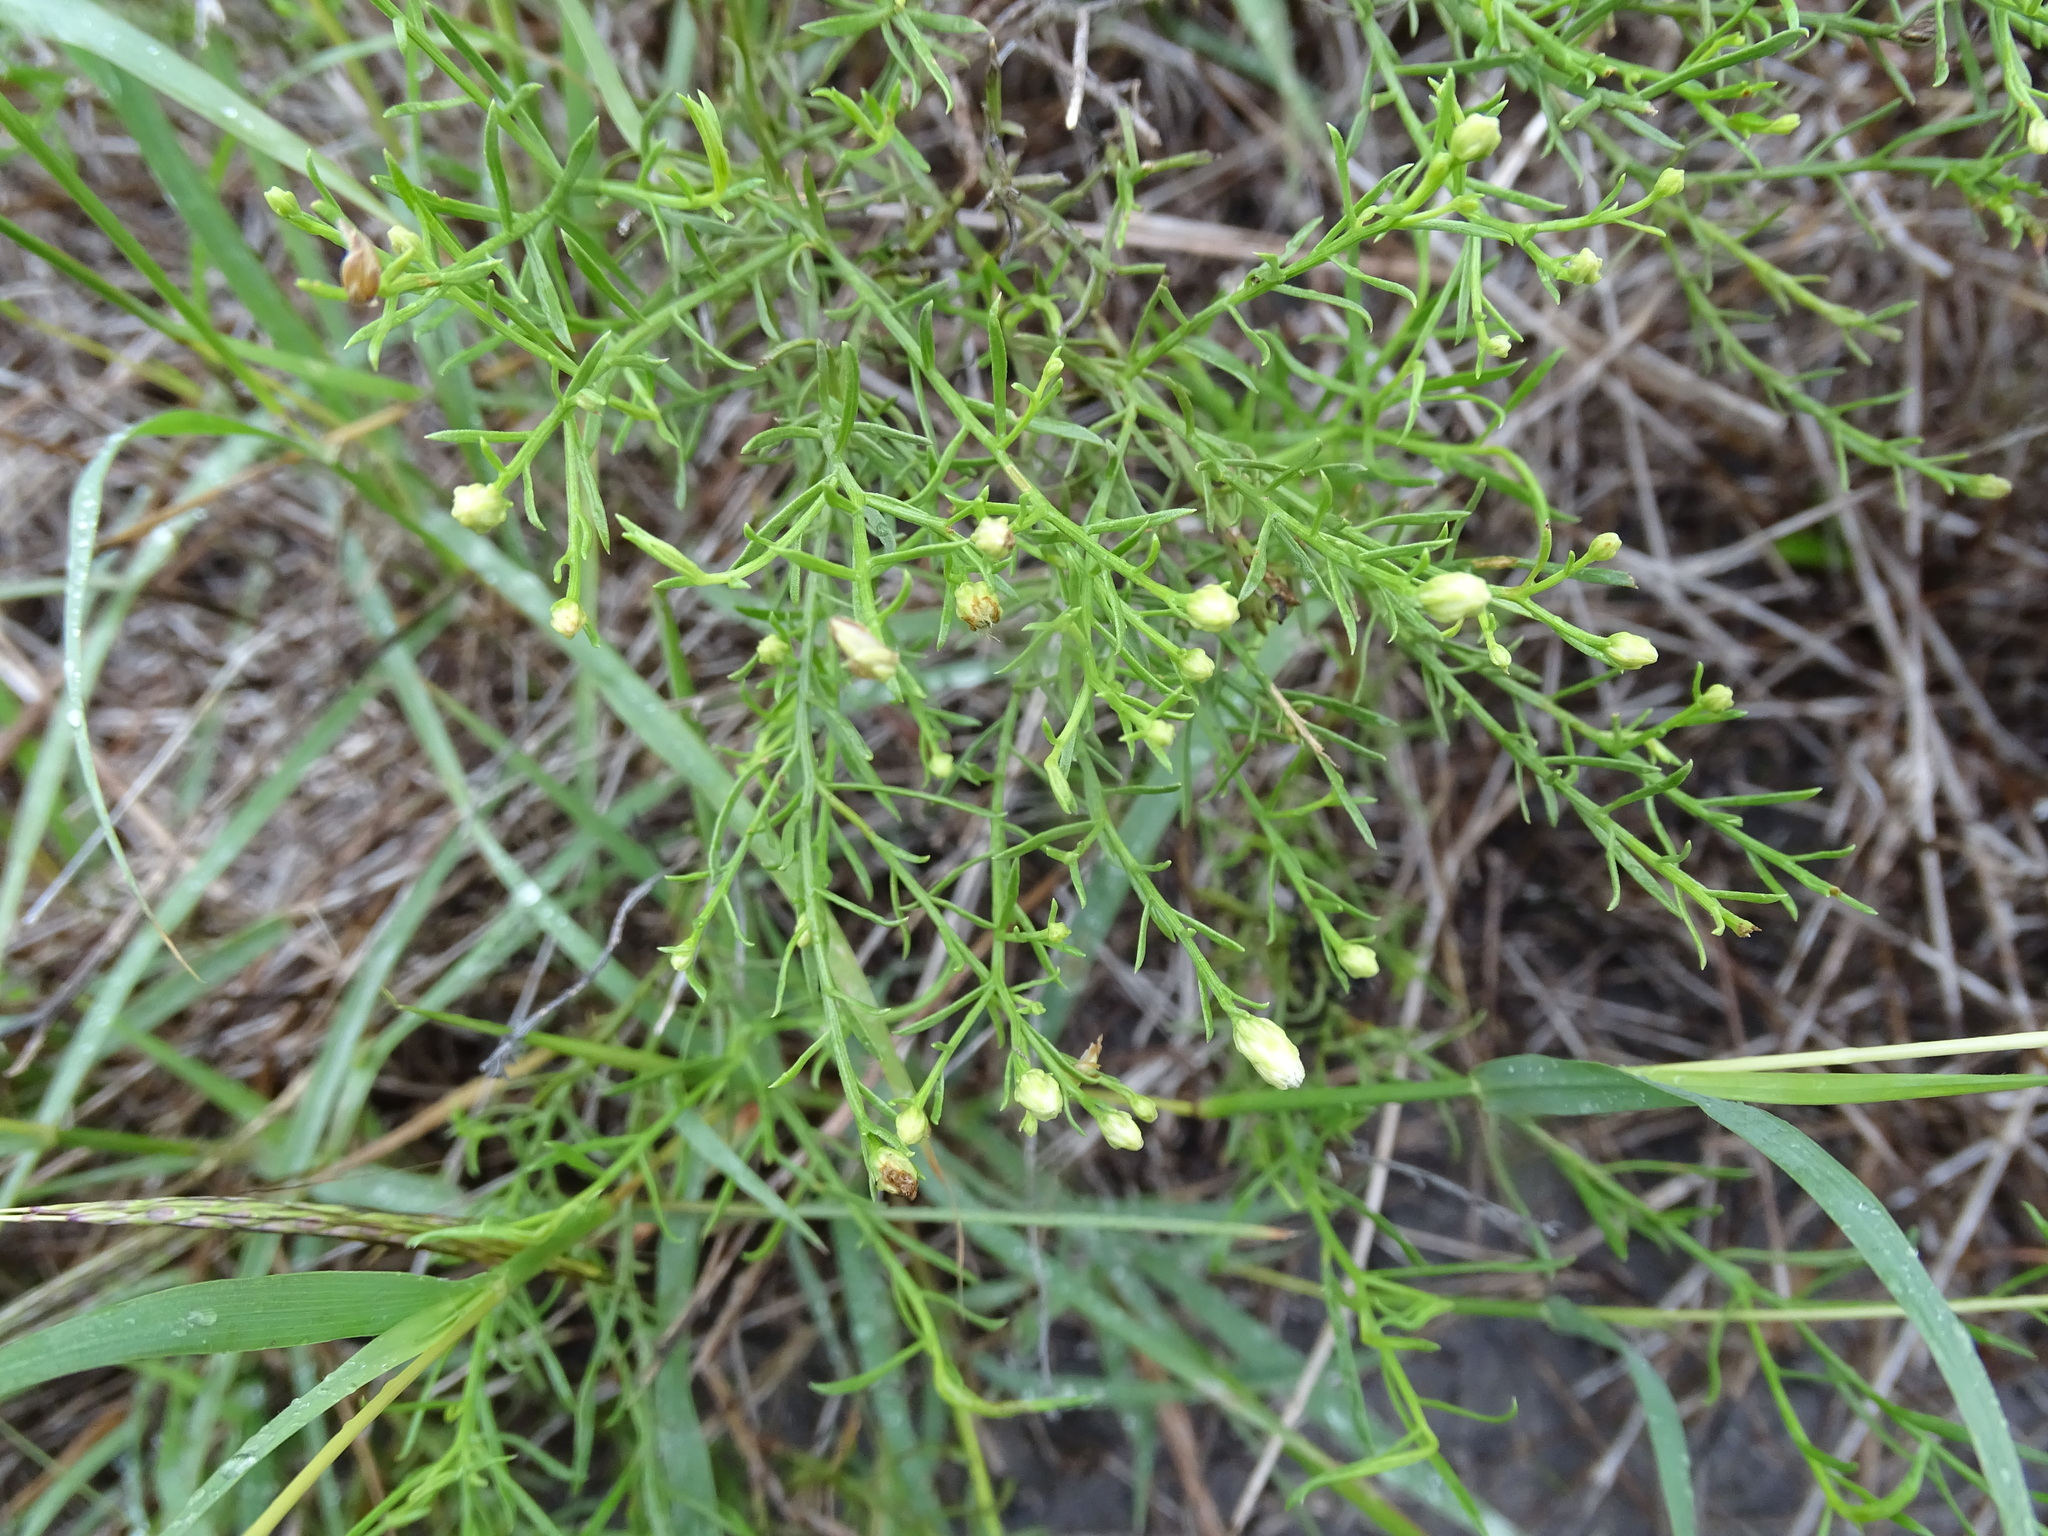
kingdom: Plantae
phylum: Tracheophyta
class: Magnoliopsida
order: Asterales
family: Asteraceae
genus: Medranoa
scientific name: Medranoa palmeri
